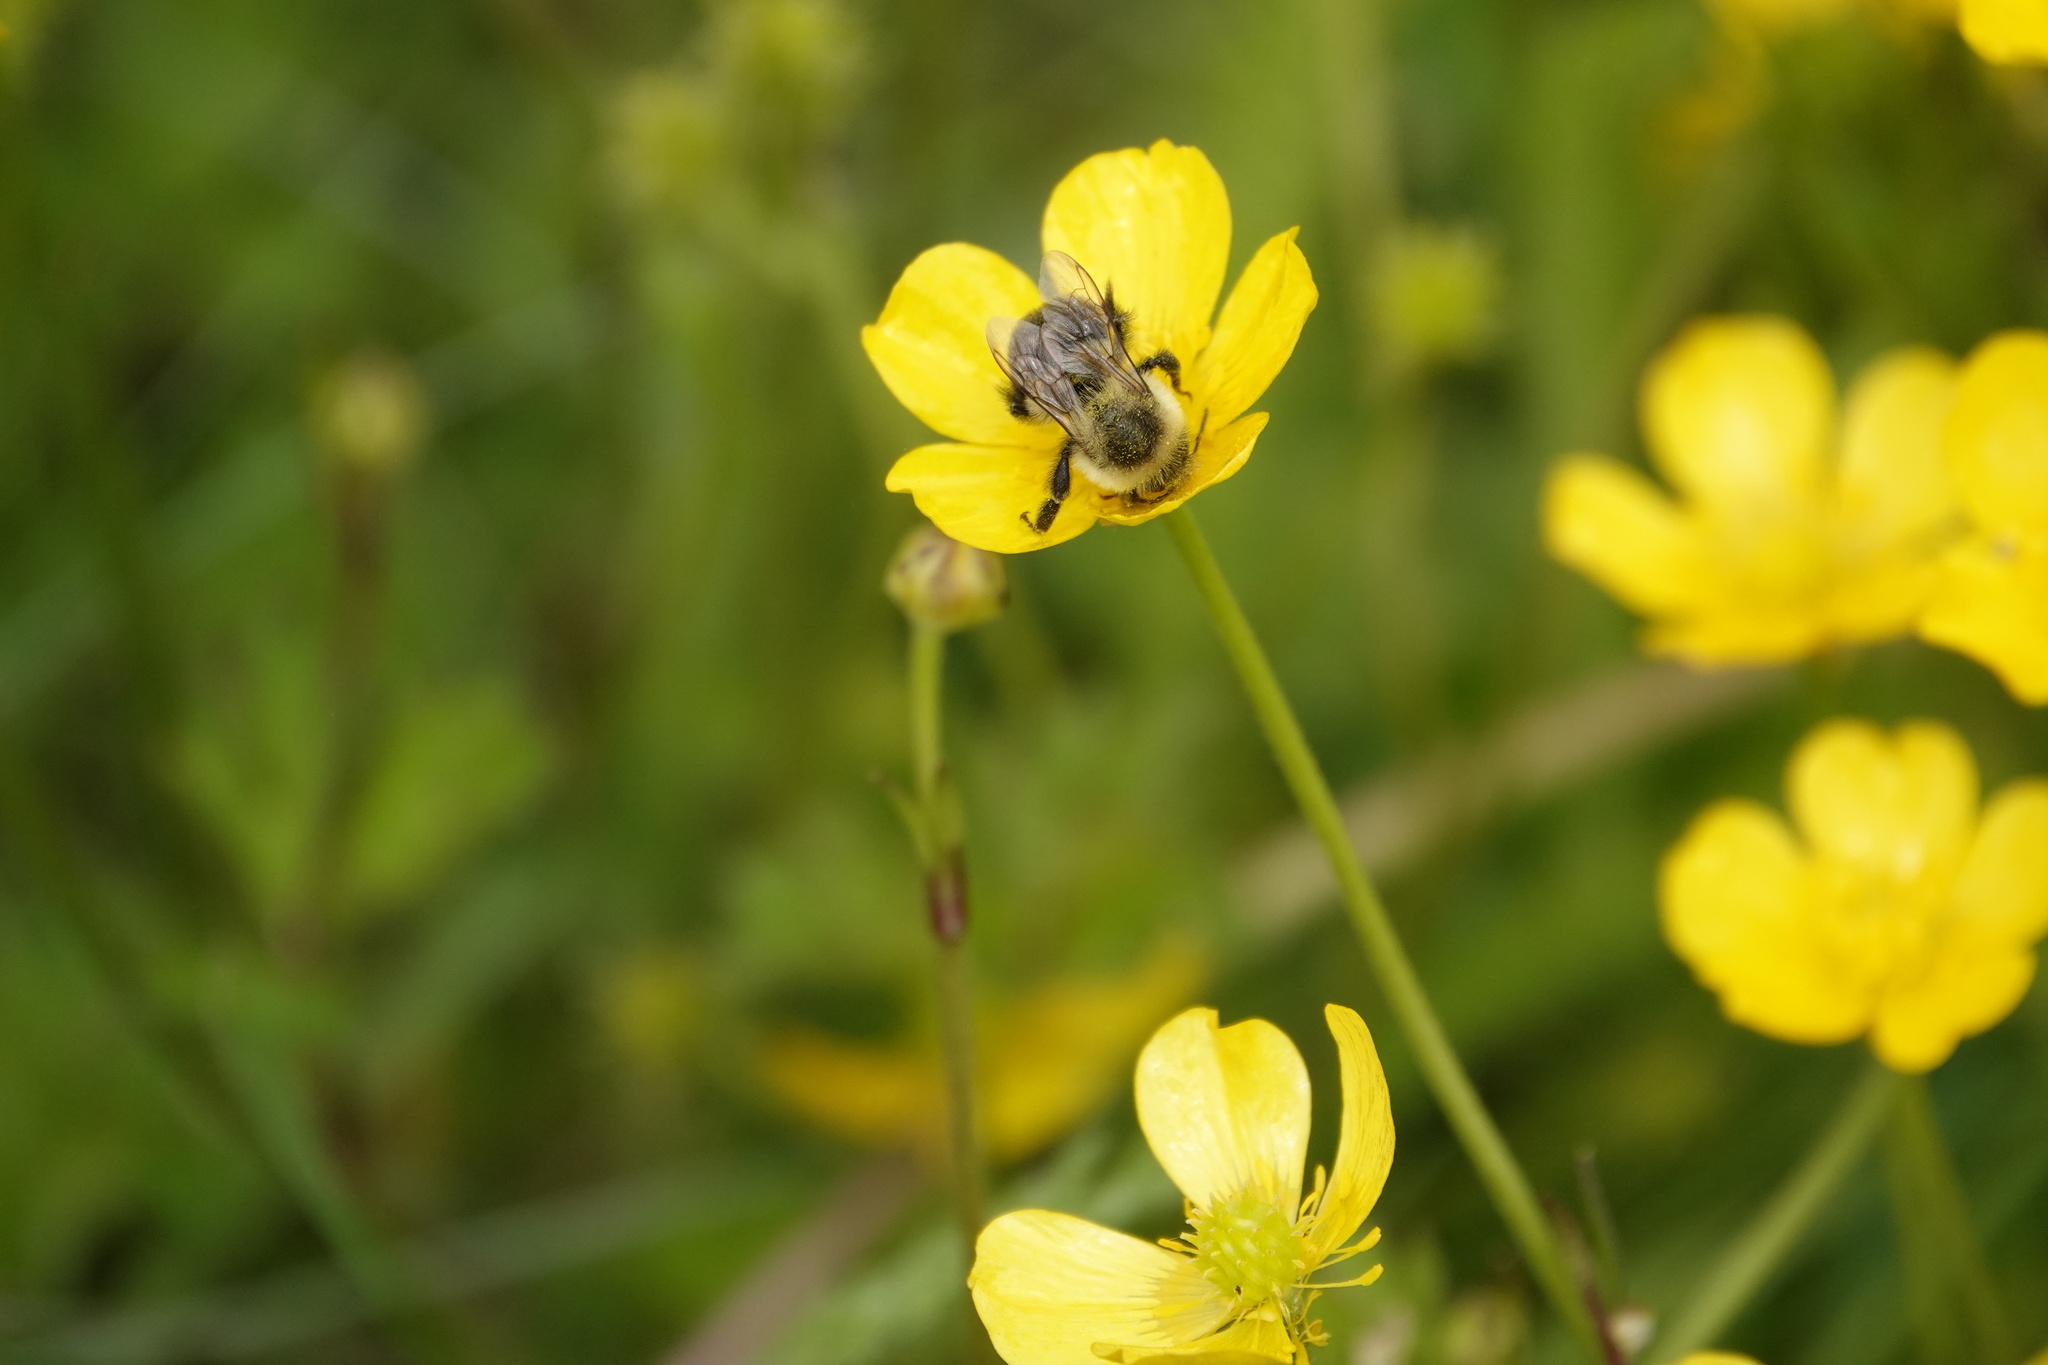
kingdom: Animalia
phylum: Arthropoda
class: Insecta
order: Hymenoptera
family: Crabronidae
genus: Bembix
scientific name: Bembix americana
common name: American sand wasp
